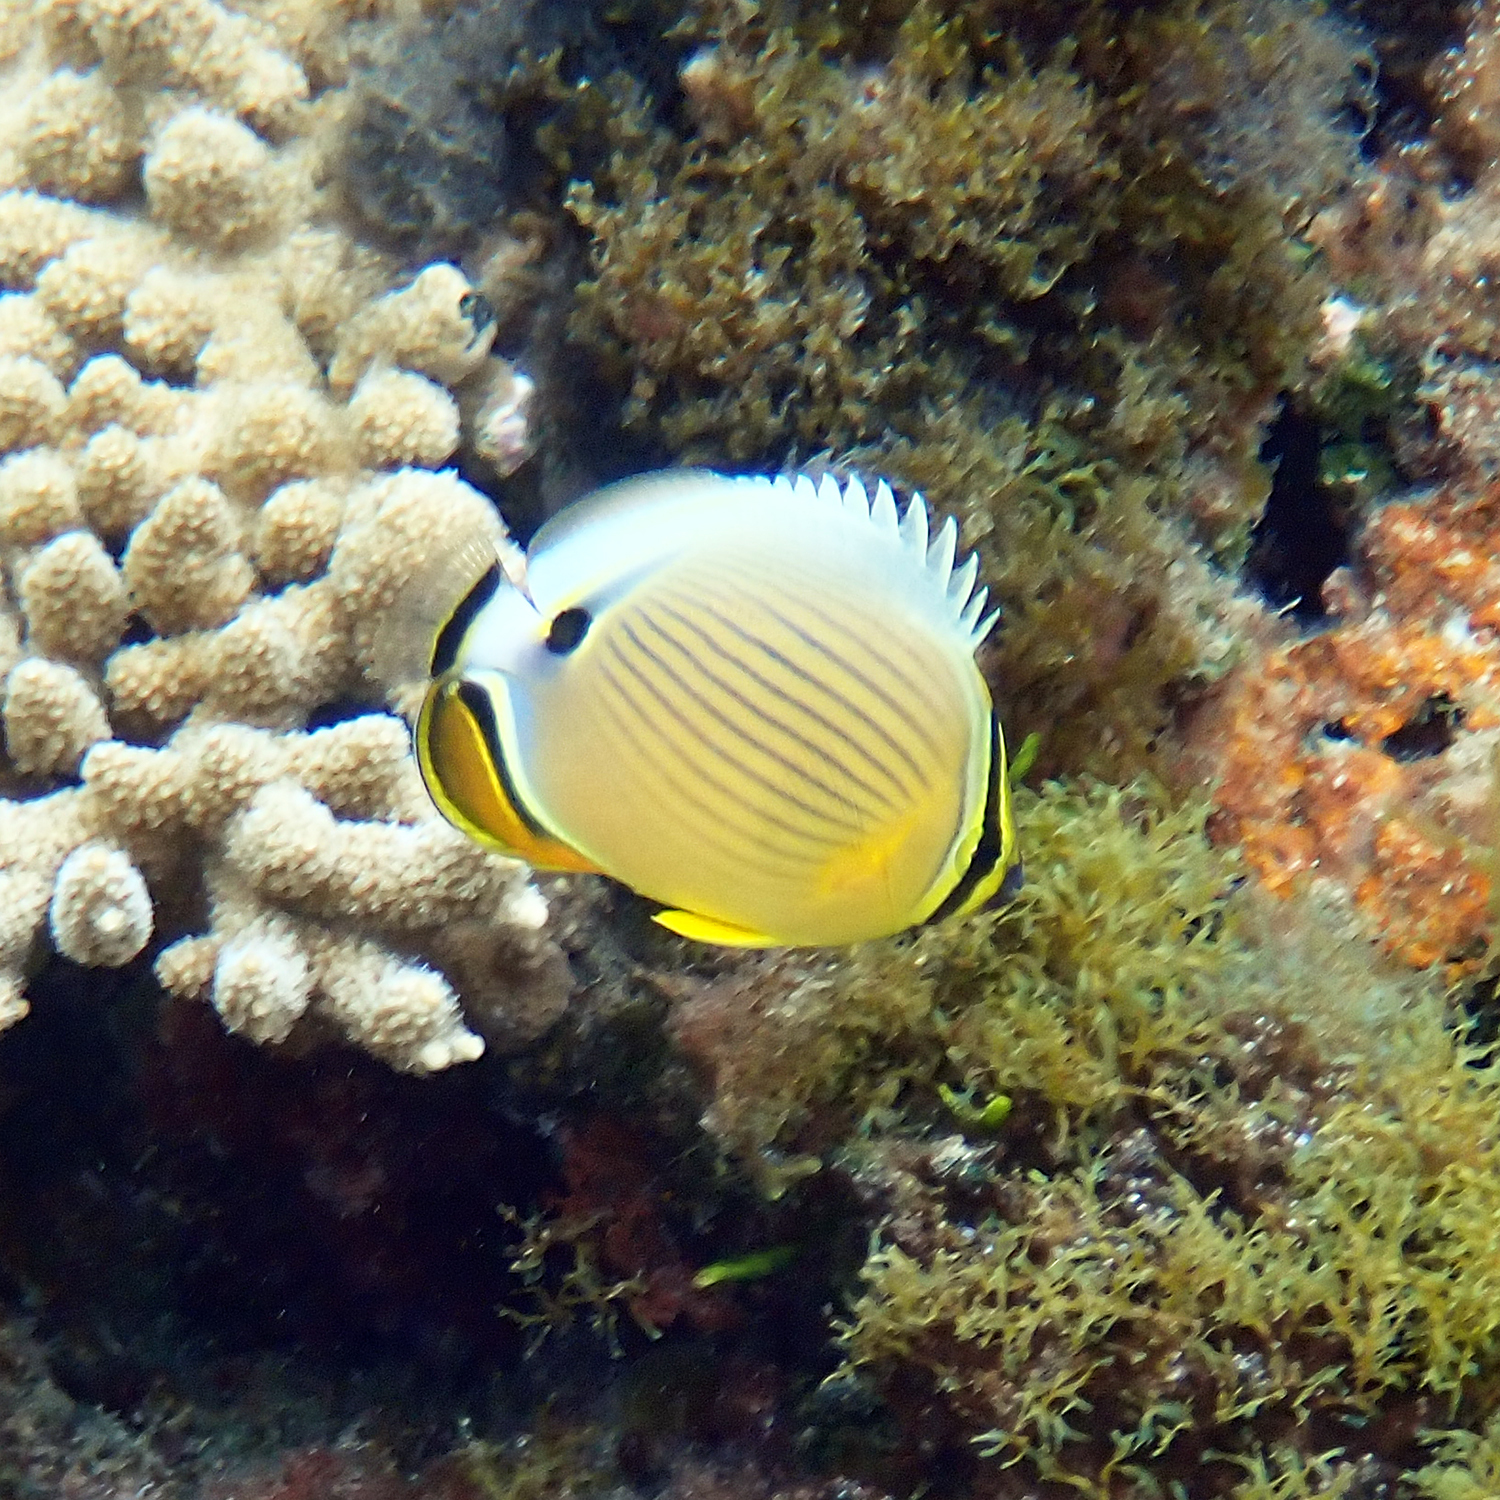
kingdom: Animalia
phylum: Chordata
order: Perciformes
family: Chaetodontidae
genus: Chaetodon
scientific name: Chaetodon lunulatus
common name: Redfin butterflyfish
